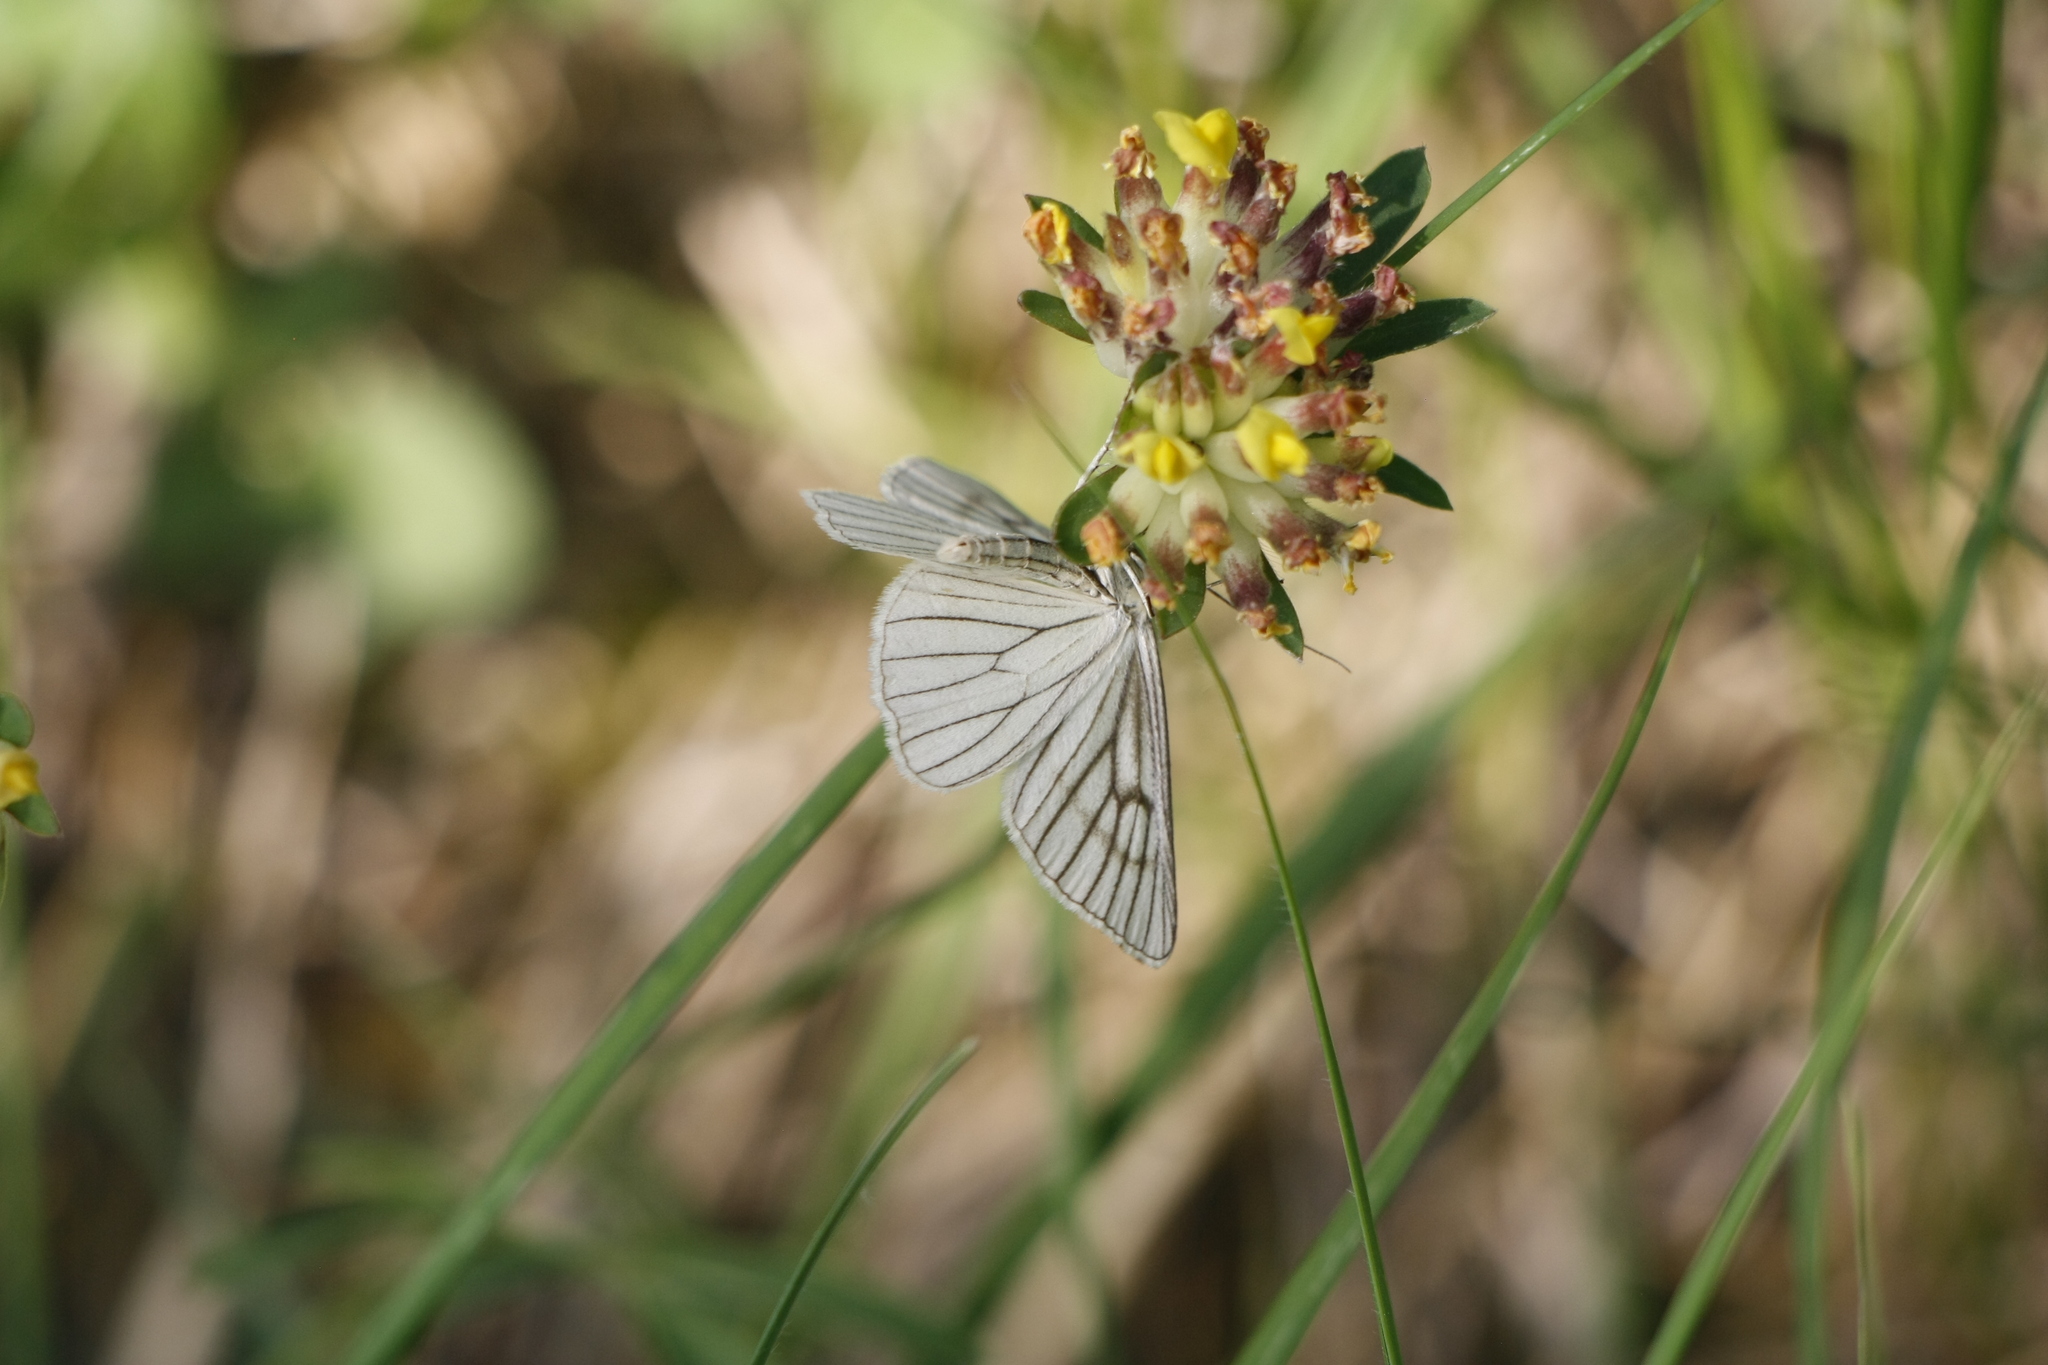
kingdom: Animalia
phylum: Arthropoda
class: Insecta
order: Lepidoptera
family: Geometridae
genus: Siona
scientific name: Siona lineata
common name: Black-veined moth
